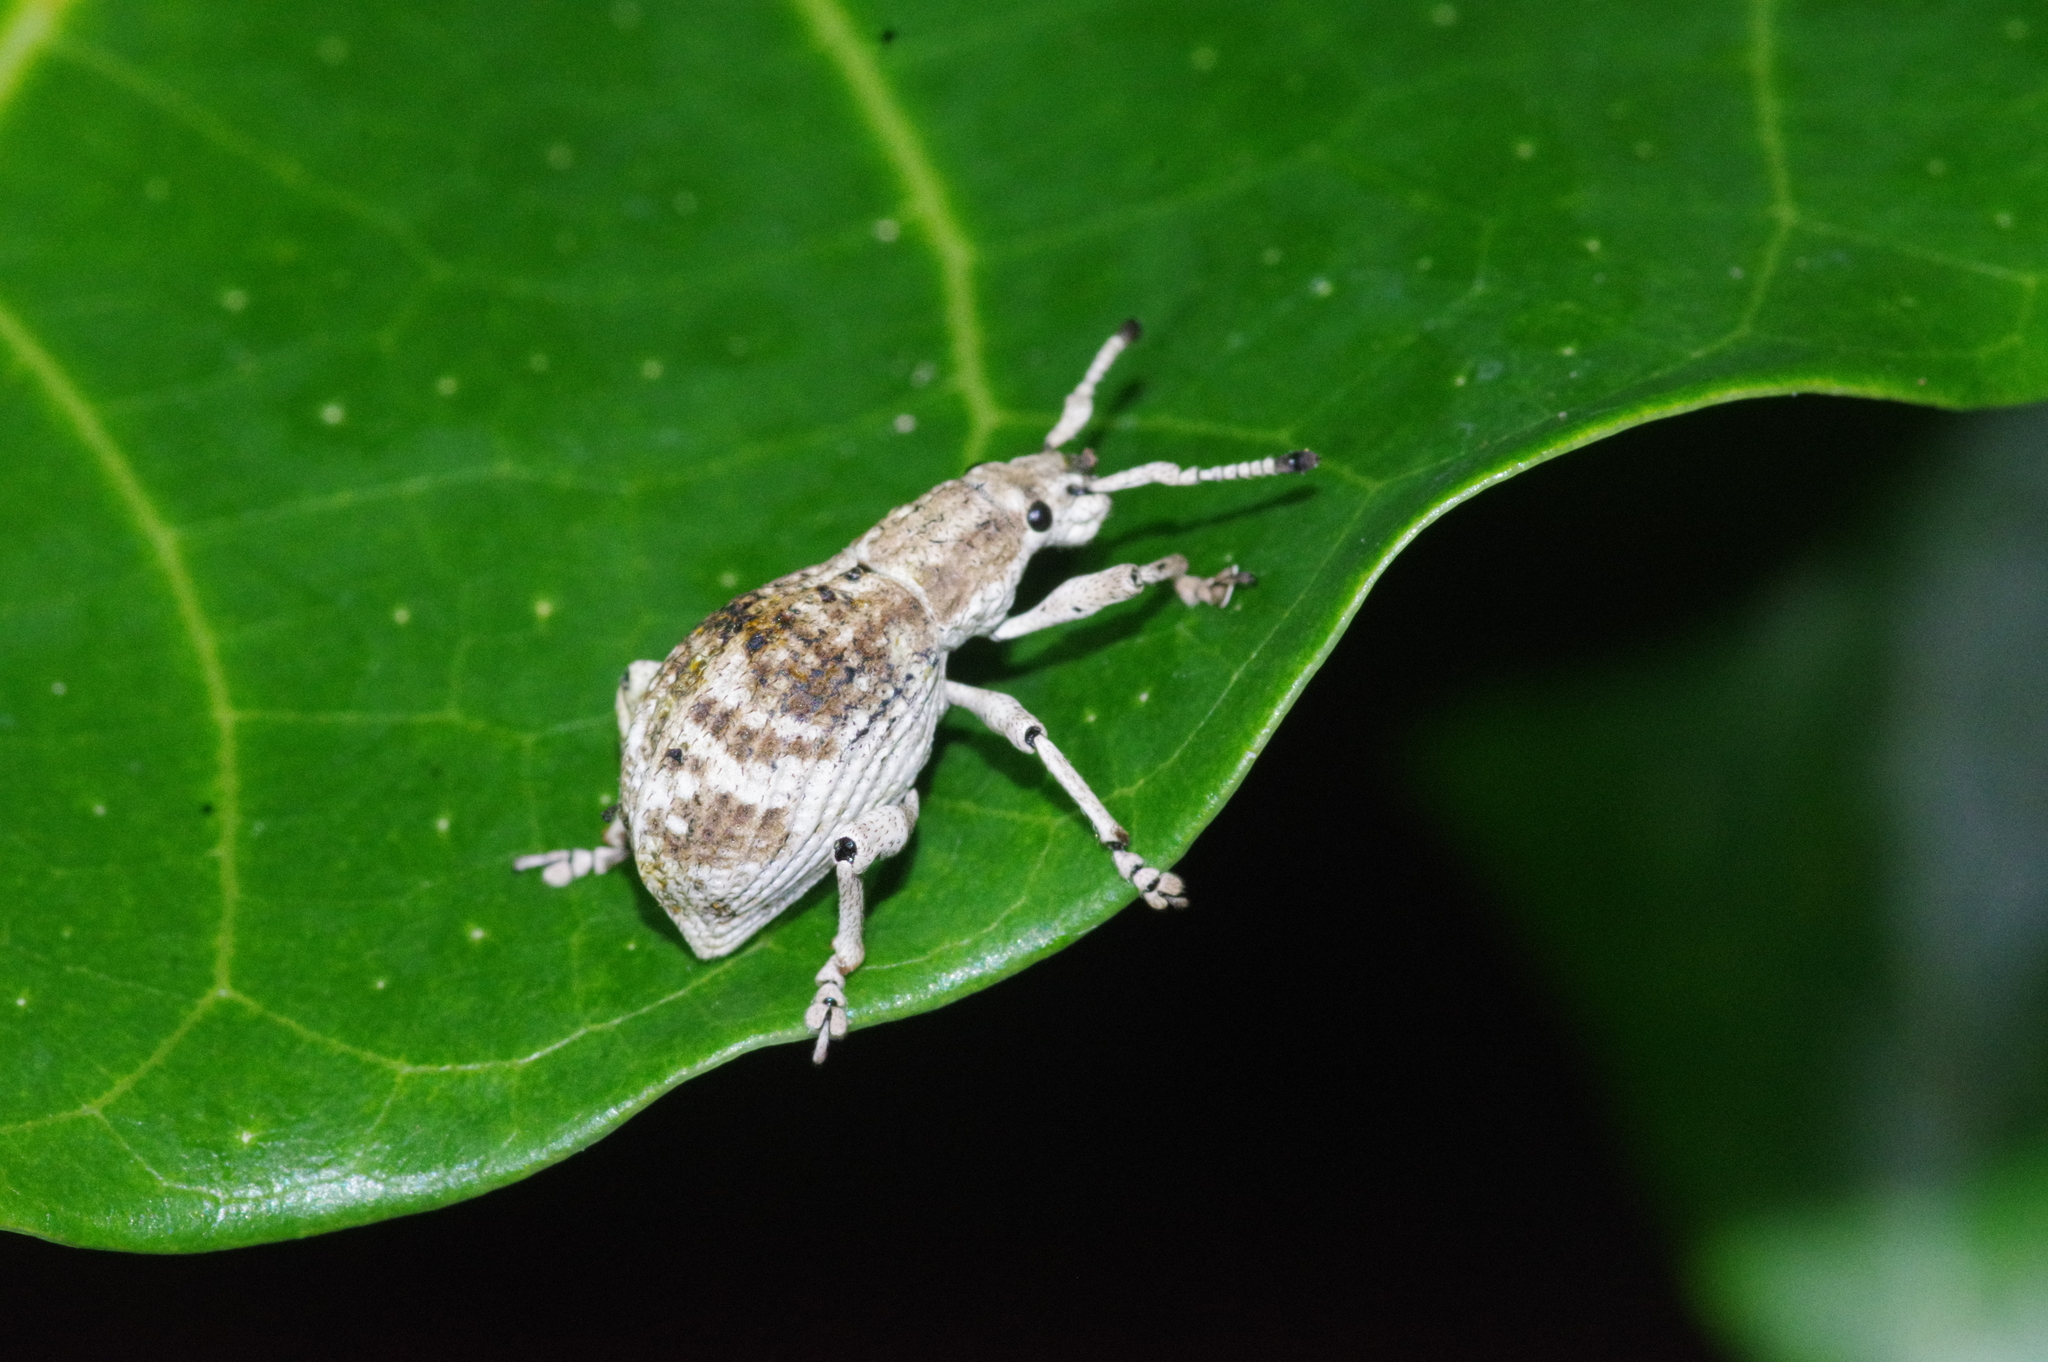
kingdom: Animalia
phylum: Arthropoda
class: Insecta
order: Coleoptera
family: Curculionidae
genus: Episomus
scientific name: Episomus mori
